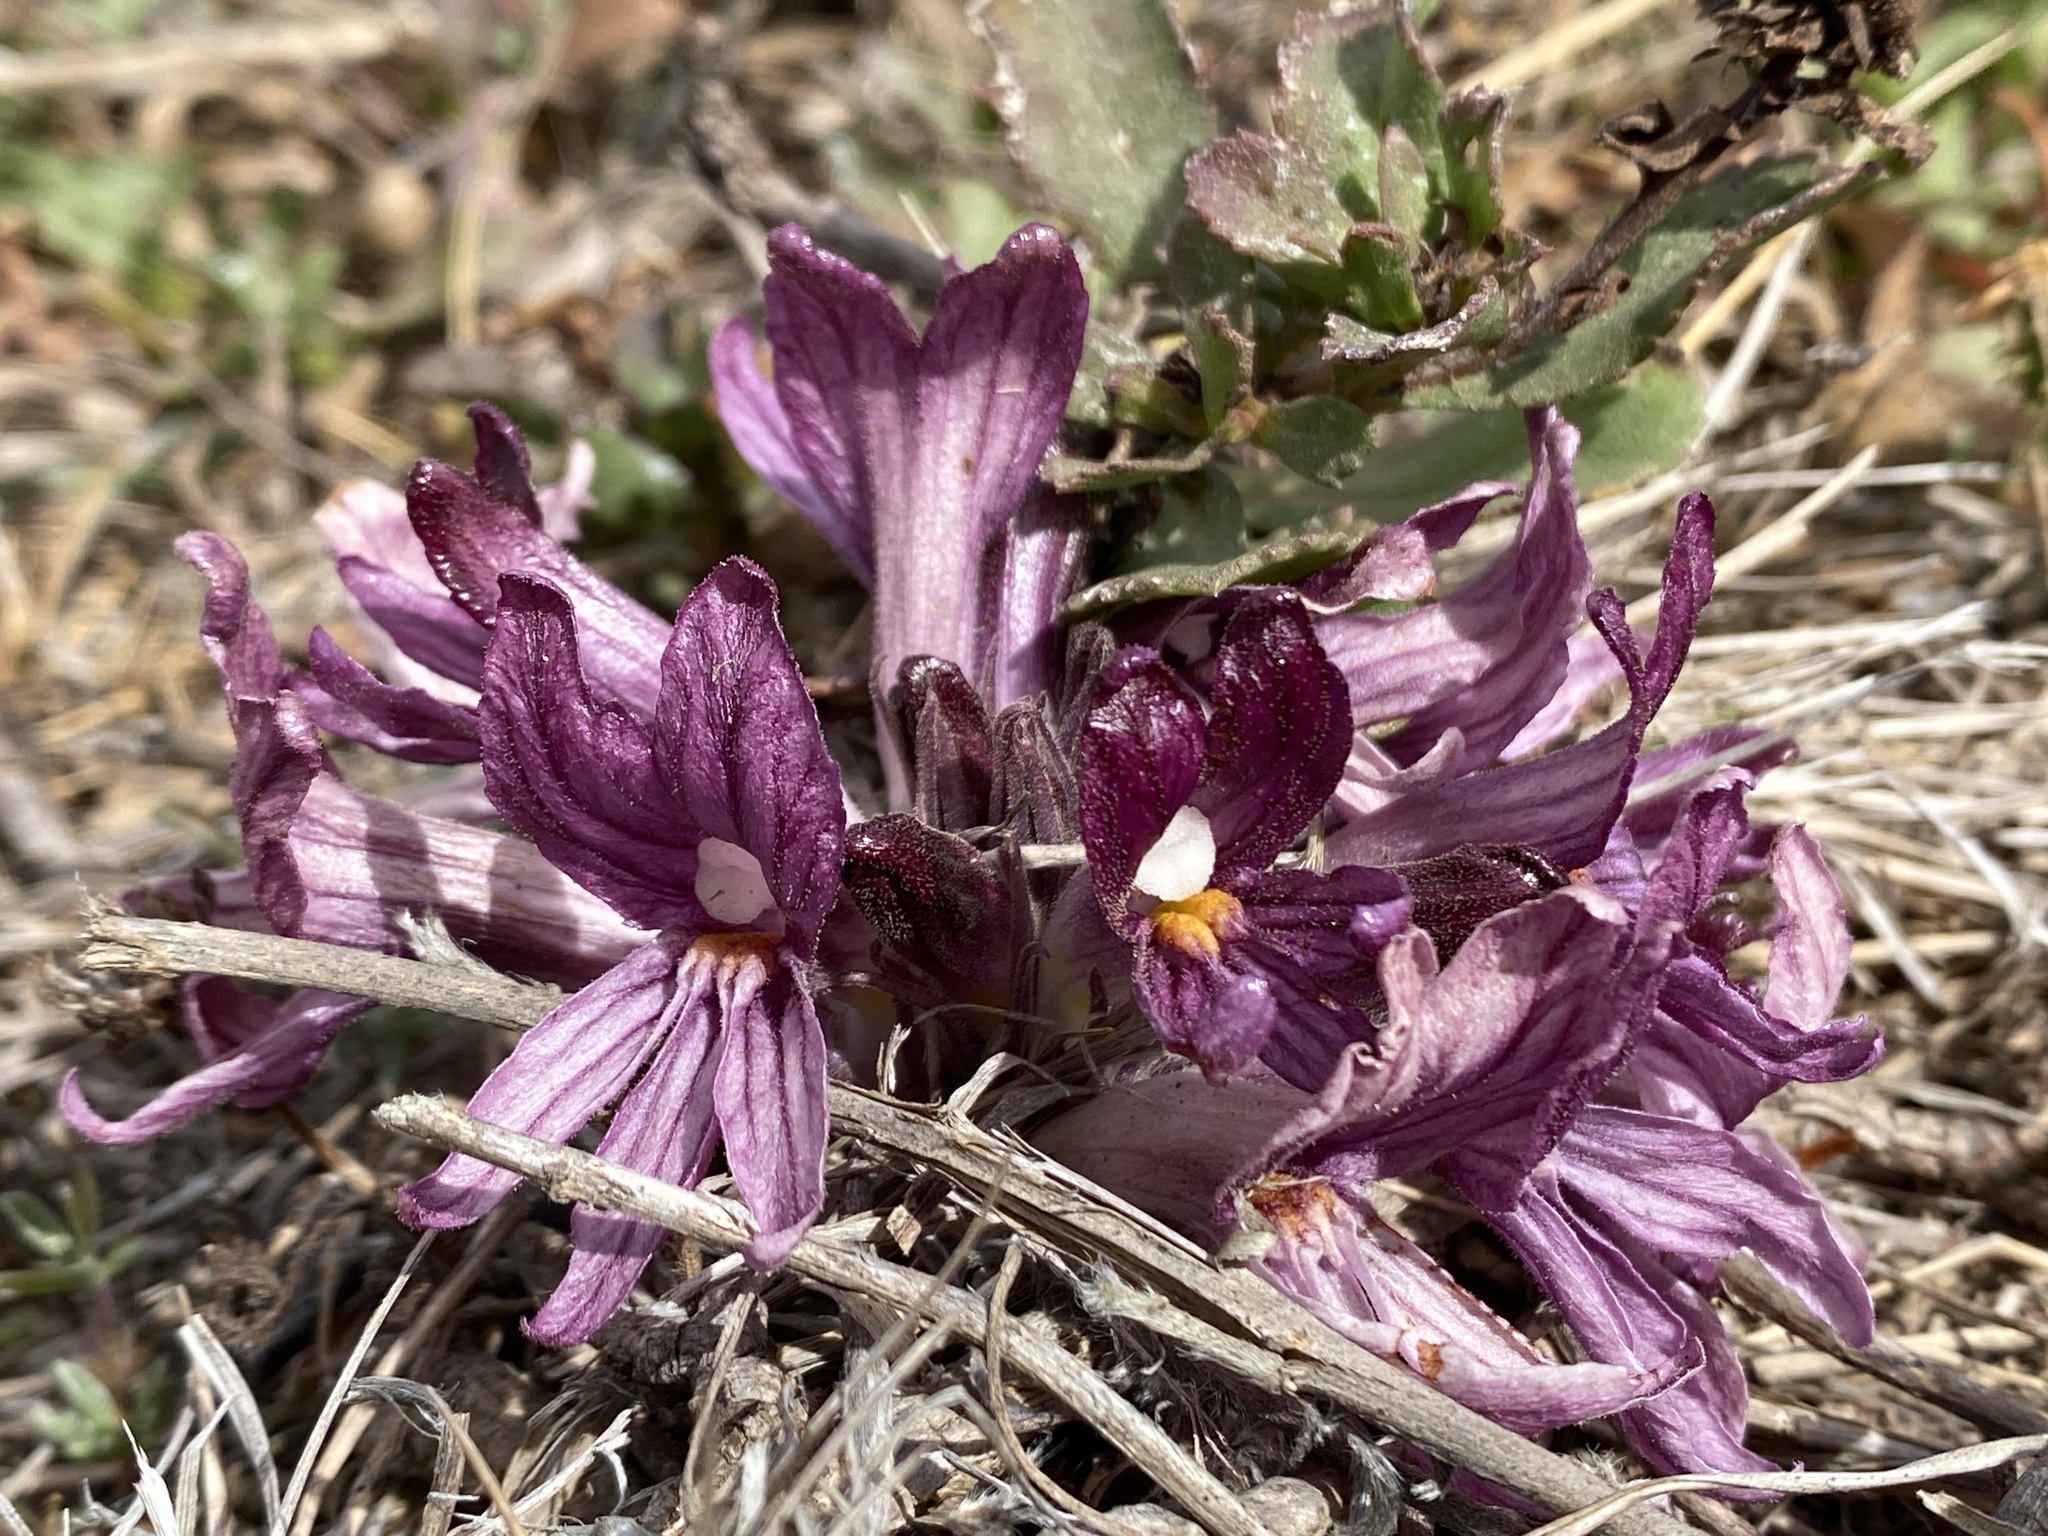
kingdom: Plantae
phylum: Tracheophyta
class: Magnoliopsida
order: Lamiales
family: Orobanchaceae
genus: Aphyllon
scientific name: Aphyllon californicum
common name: California broomrape
